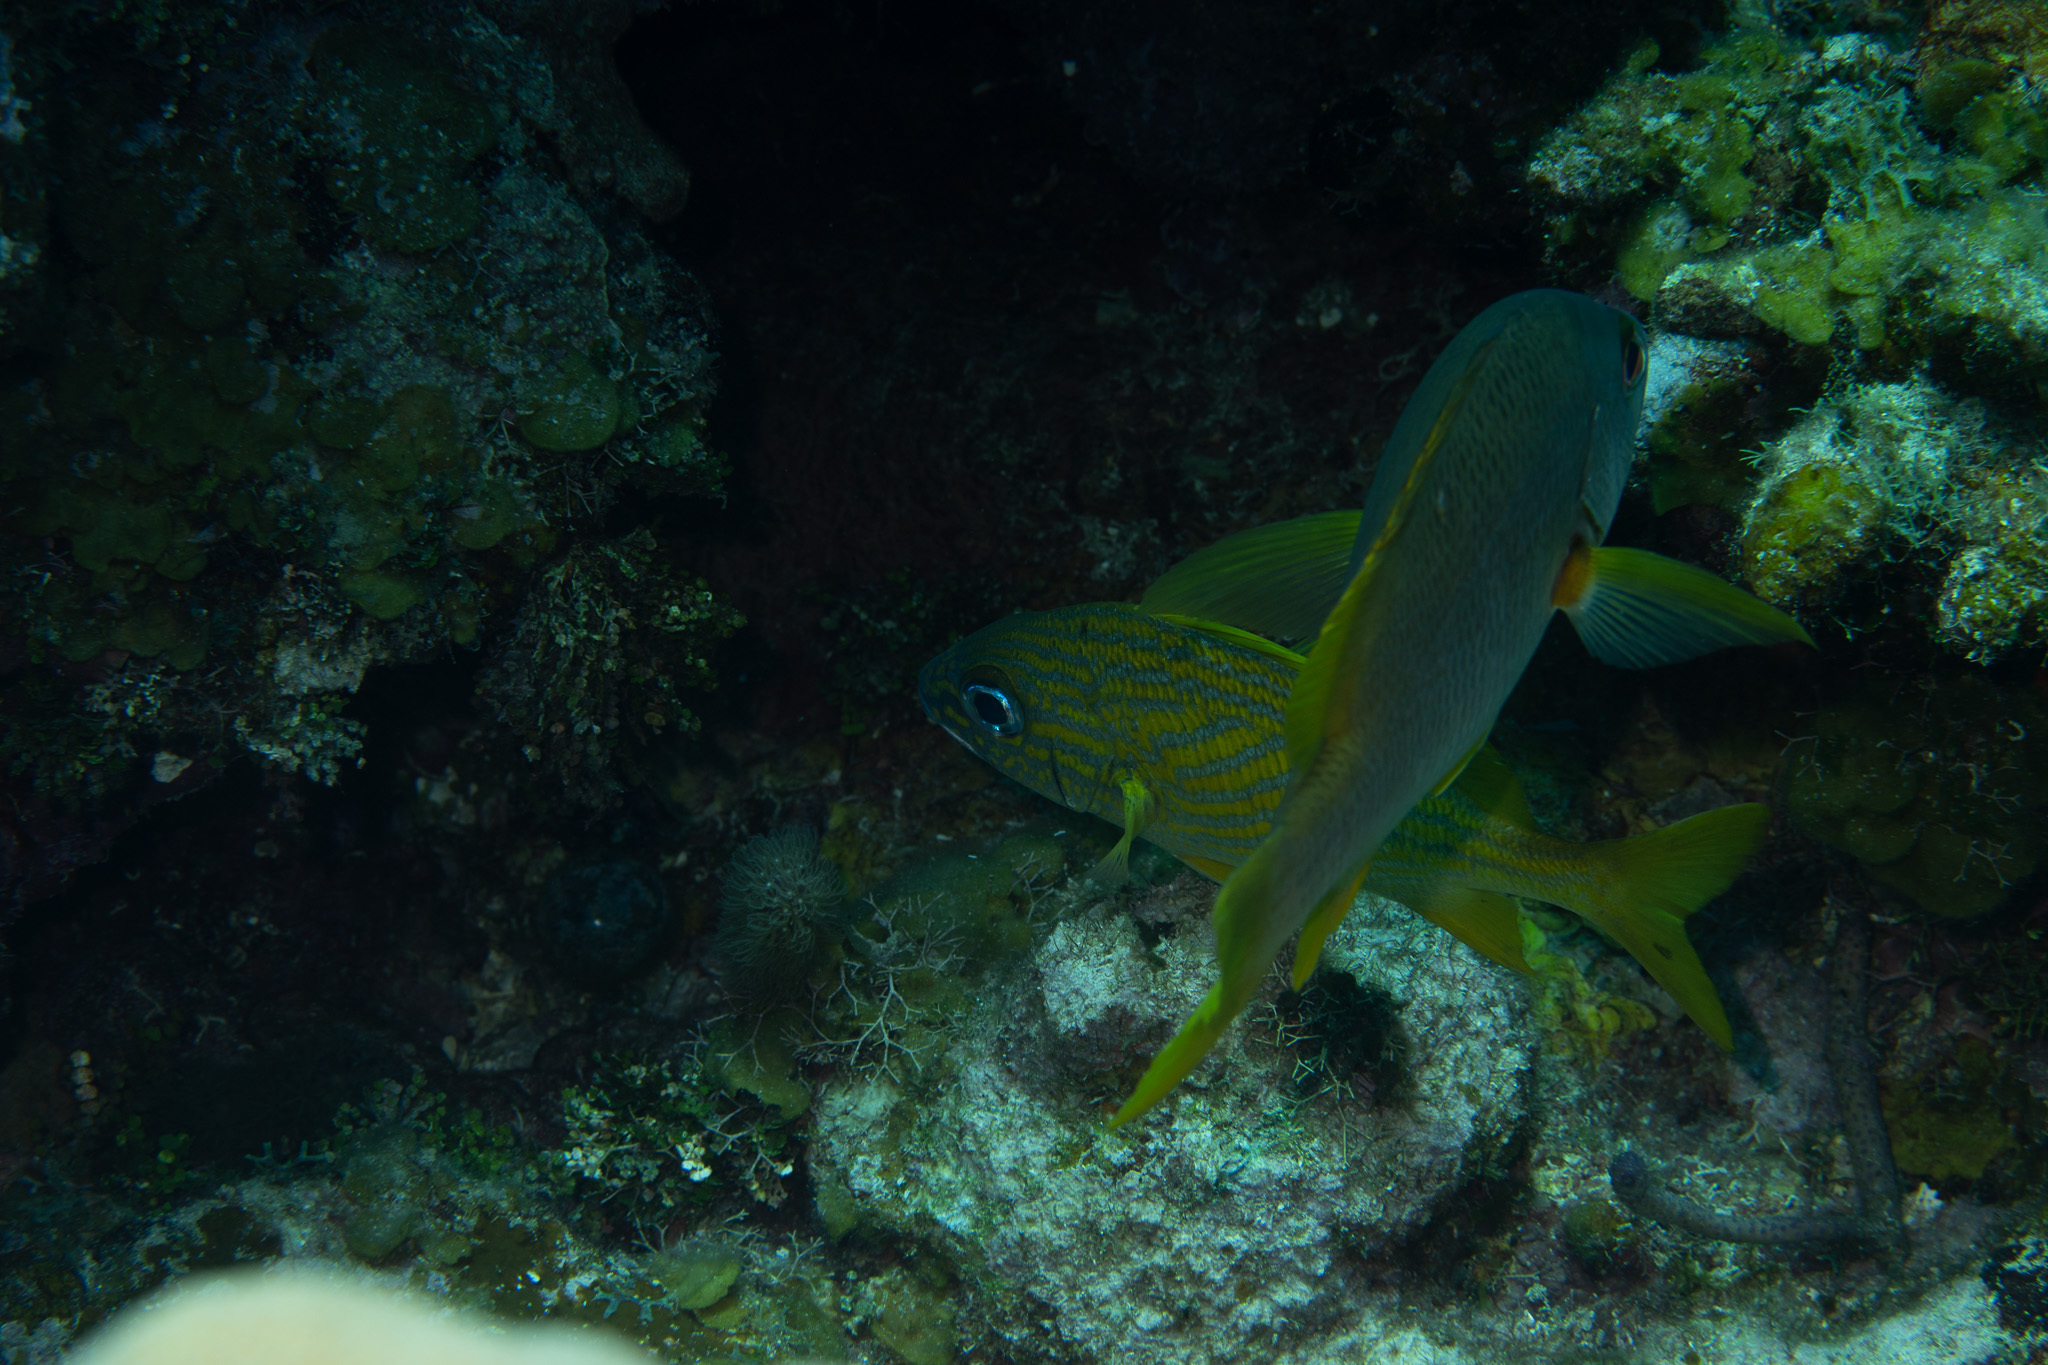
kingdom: Animalia
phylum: Chordata
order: Perciformes
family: Haemulidae
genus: Haemulon
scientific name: Haemulon flavolineatum
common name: French grunt
